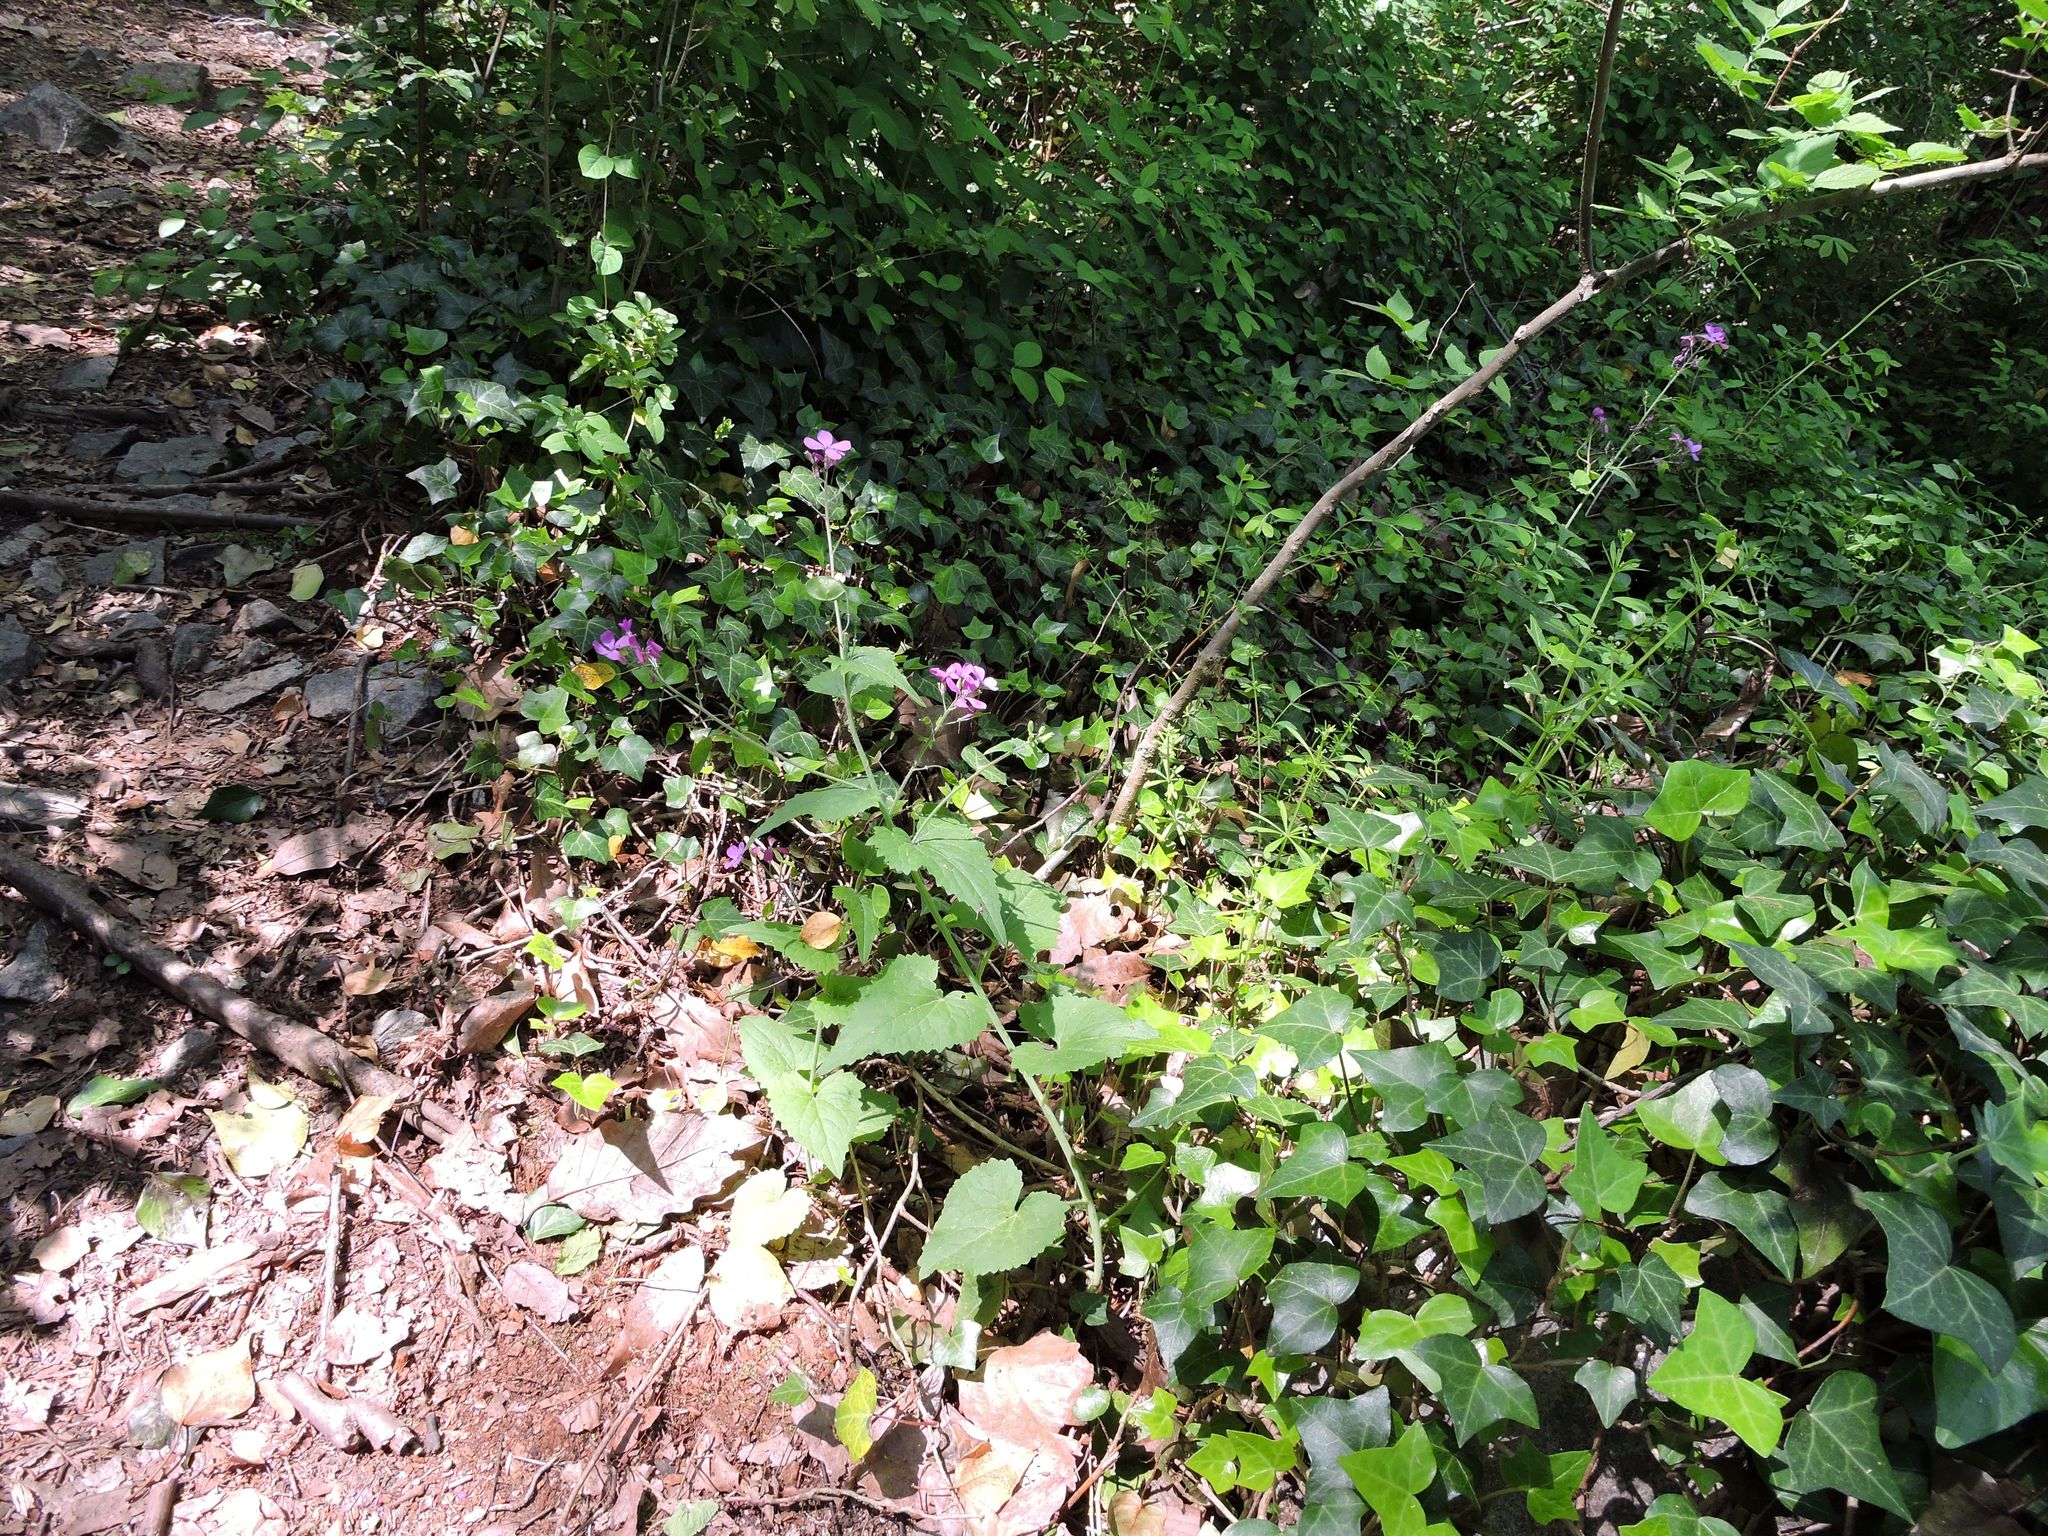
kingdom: Plantae
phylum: Tracheophyta
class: Magnoliopsida
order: Brassicales
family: Brassicaceae
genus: Lunaria
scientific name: Lunaria annua
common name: Honesty
